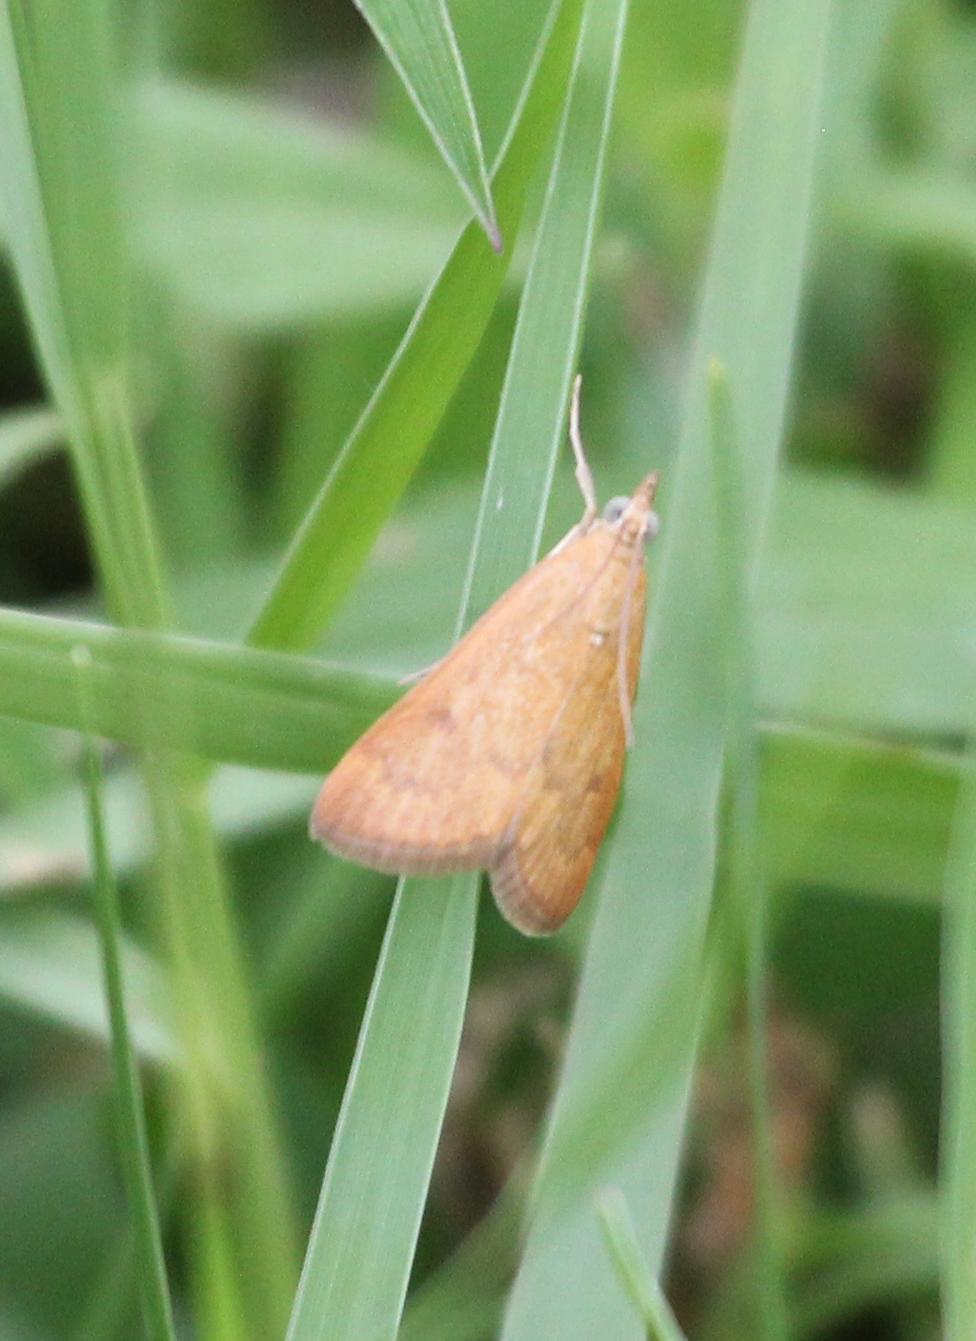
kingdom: Animalia
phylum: Arthropoda
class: Insecta
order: Lepidoptera
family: Crambidae
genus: Achyra
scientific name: Achyra rantalis
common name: Garden webworm
